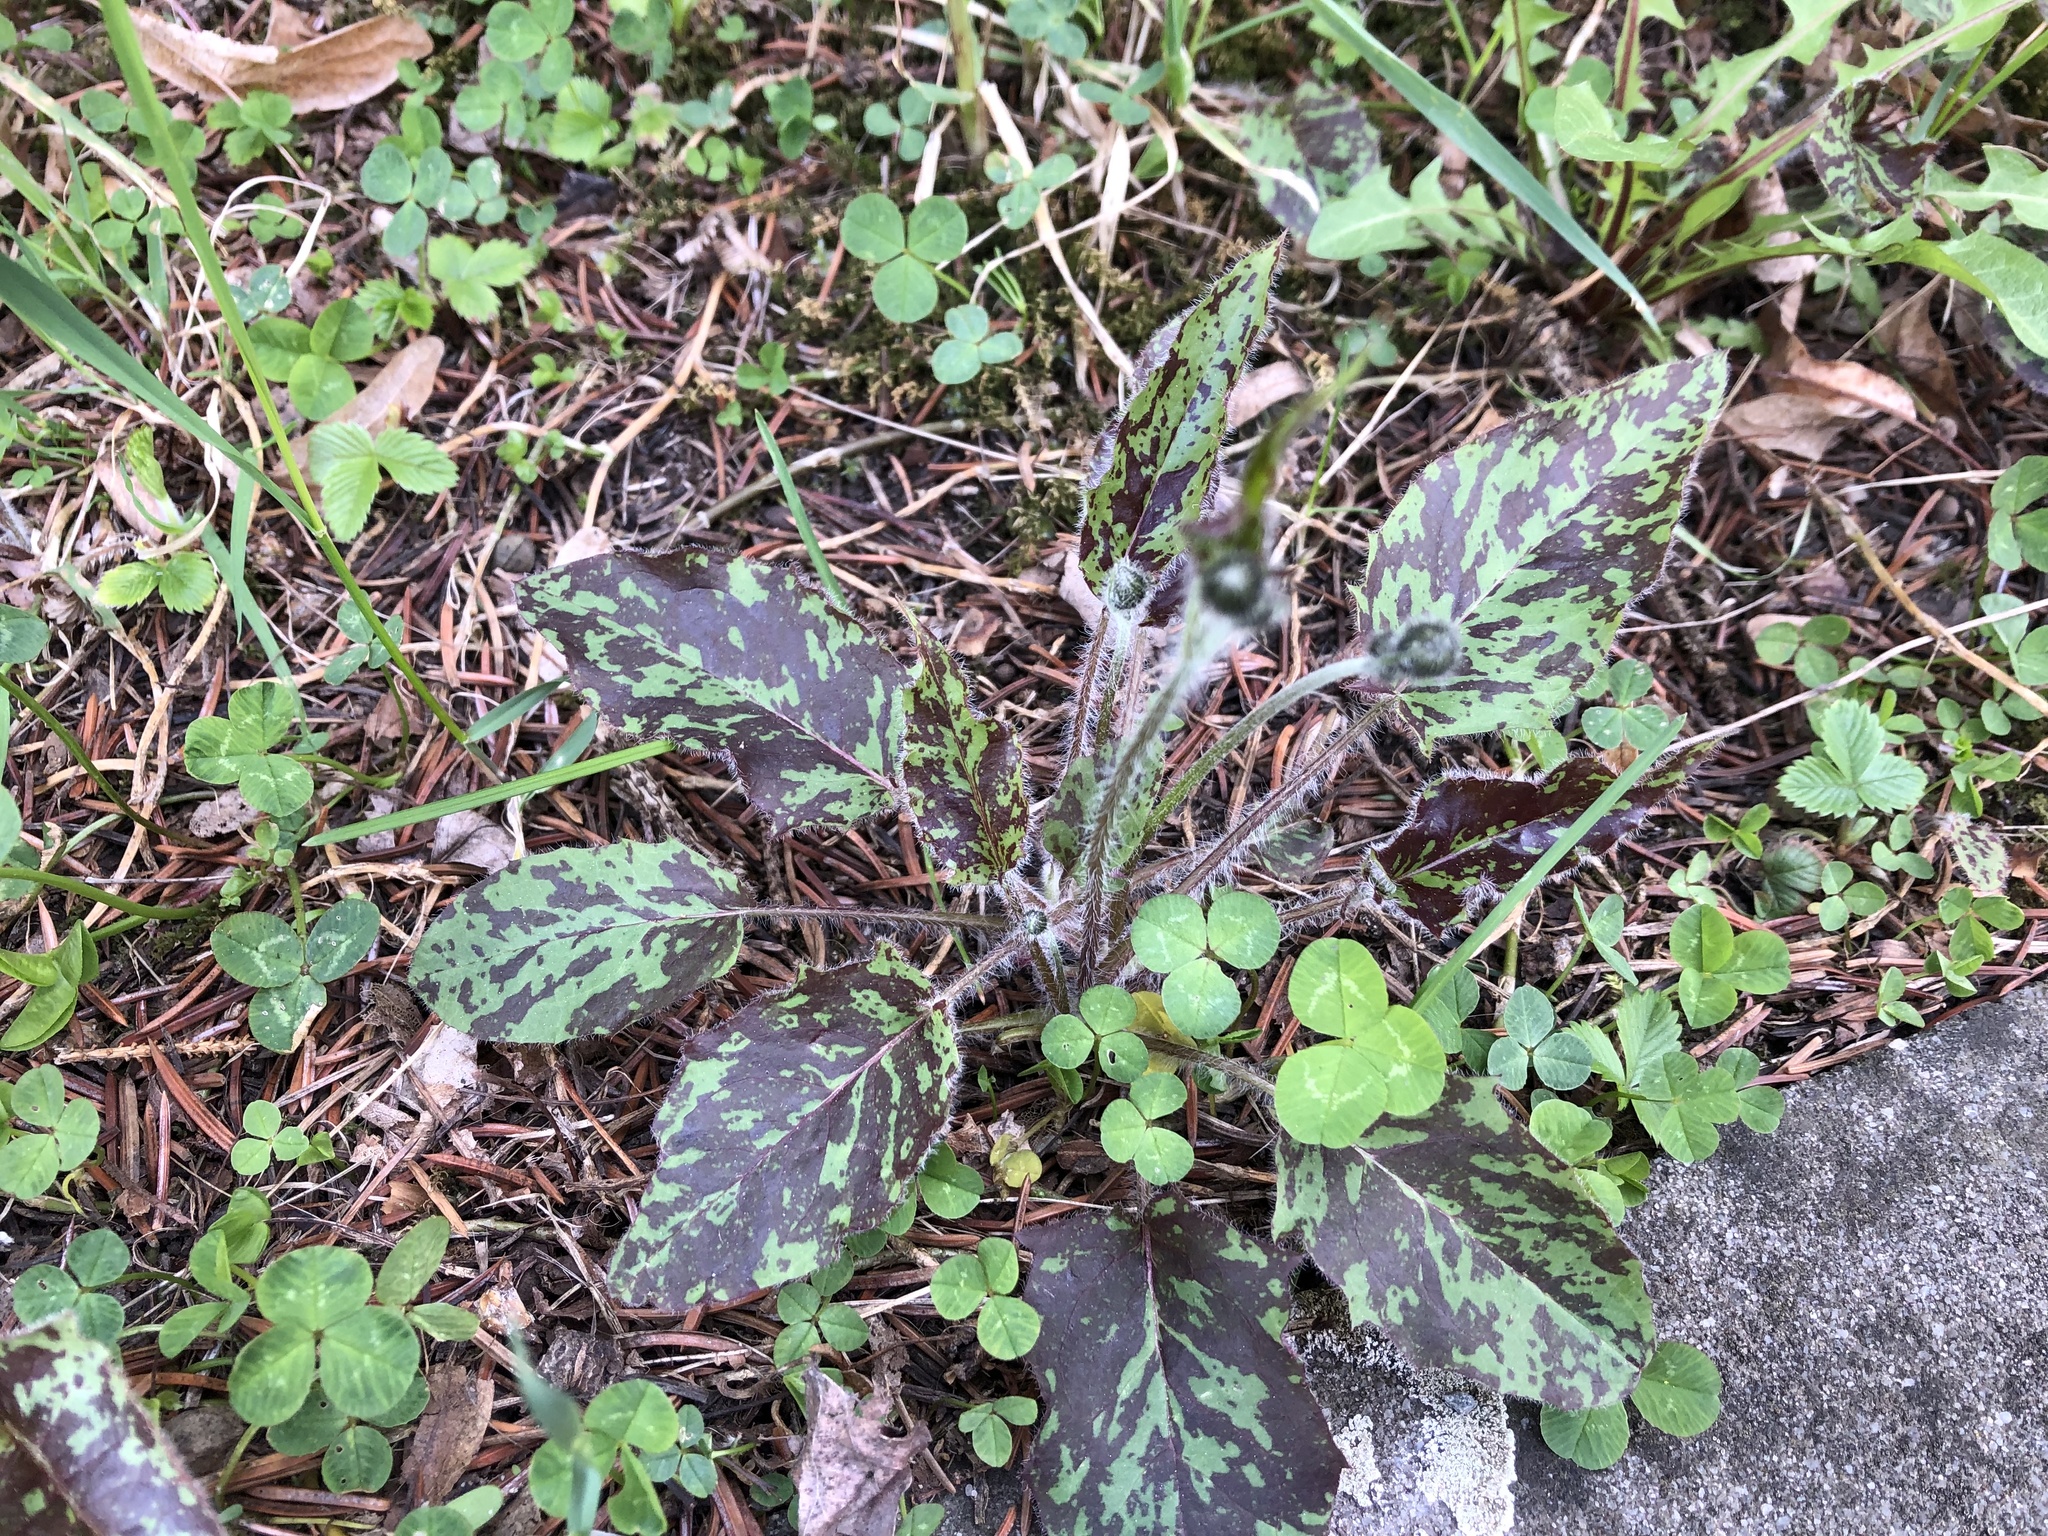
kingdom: Plantae
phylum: Tracheophyta
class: Magnoliopsida
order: Asterales
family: Asteraceae
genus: Hieracium
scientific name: Hieracium glaucinum
